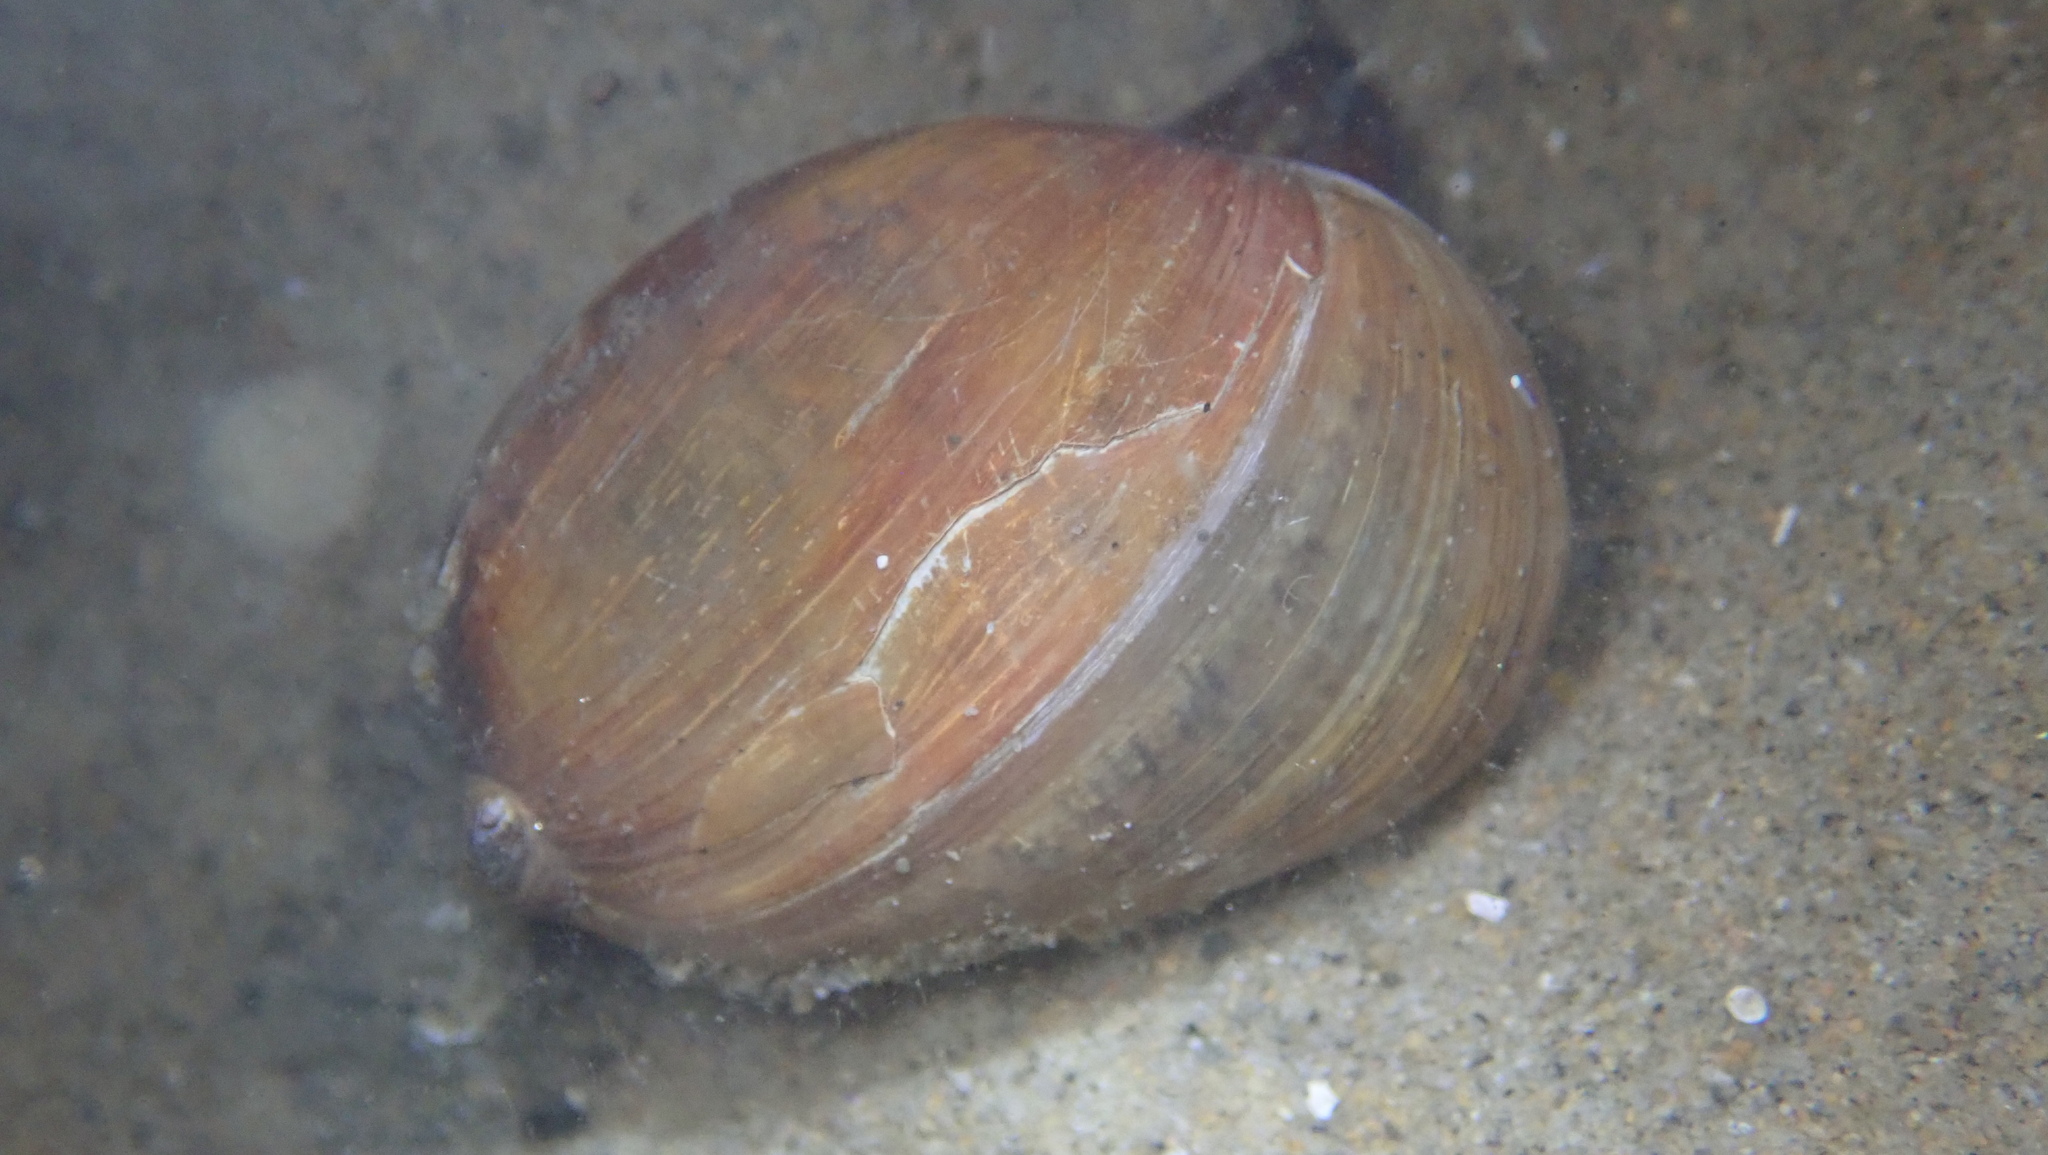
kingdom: Animalia
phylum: Mollusca
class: Gastropoda
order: Cephalaspidea
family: Bullidae
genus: Bulla
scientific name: Bulla gouldiana
